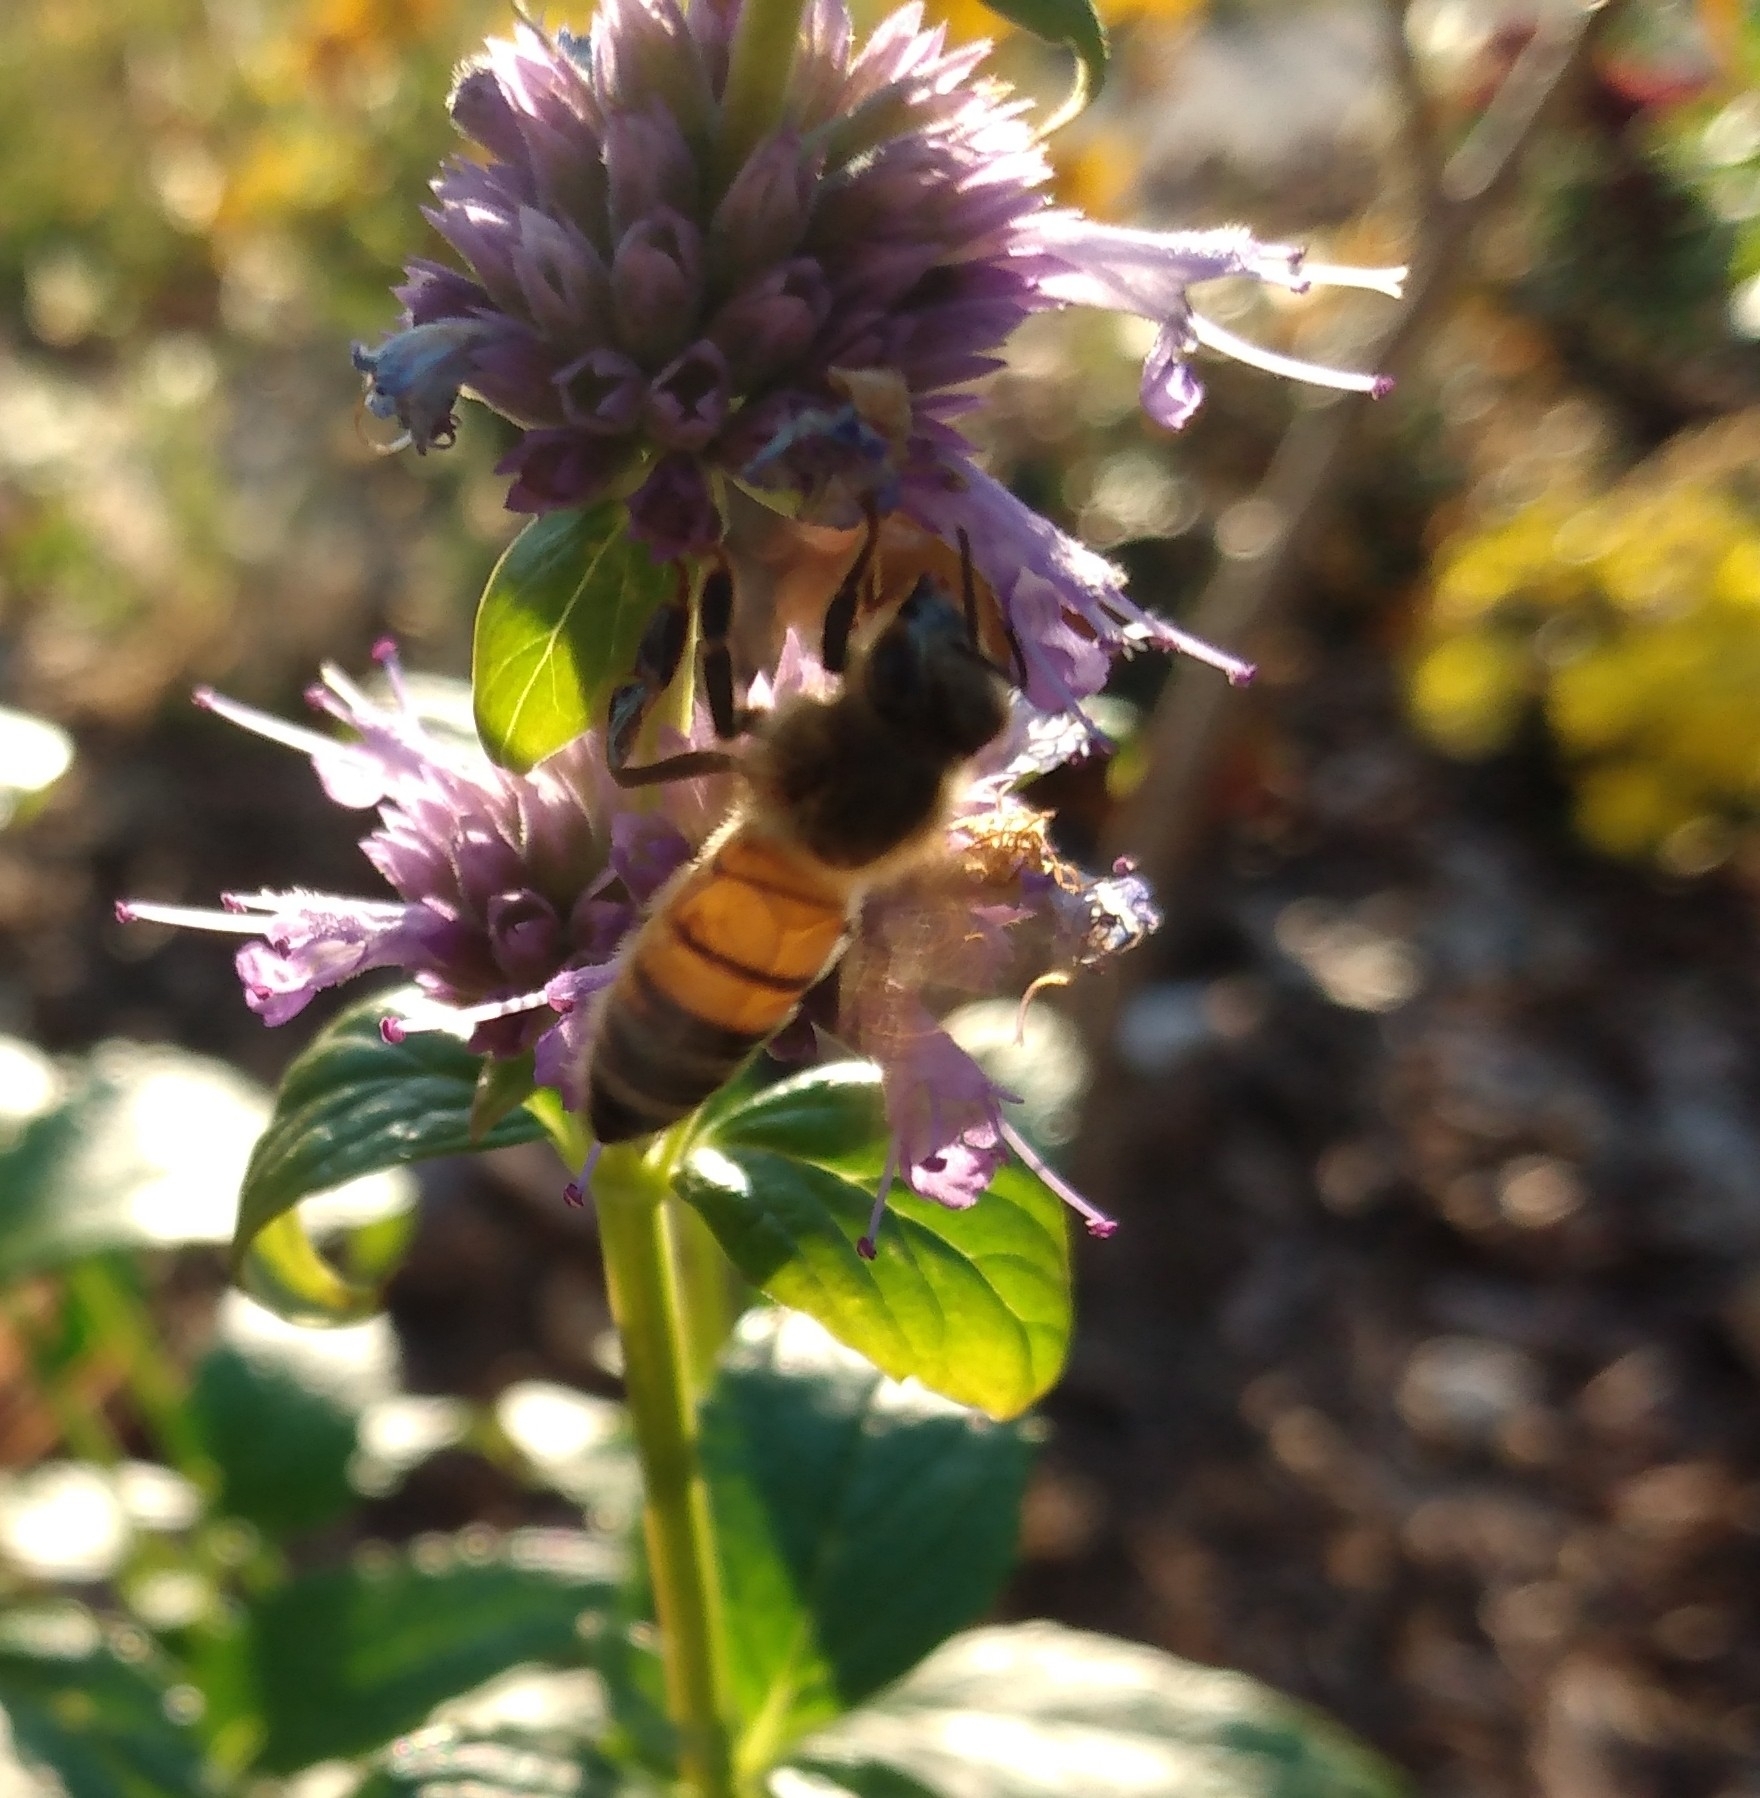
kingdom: Animalia
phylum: Arthropoda
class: Insecta
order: Hymenoptera
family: Apidae
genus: Apis
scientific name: Apis mellifera
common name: Honey bee
